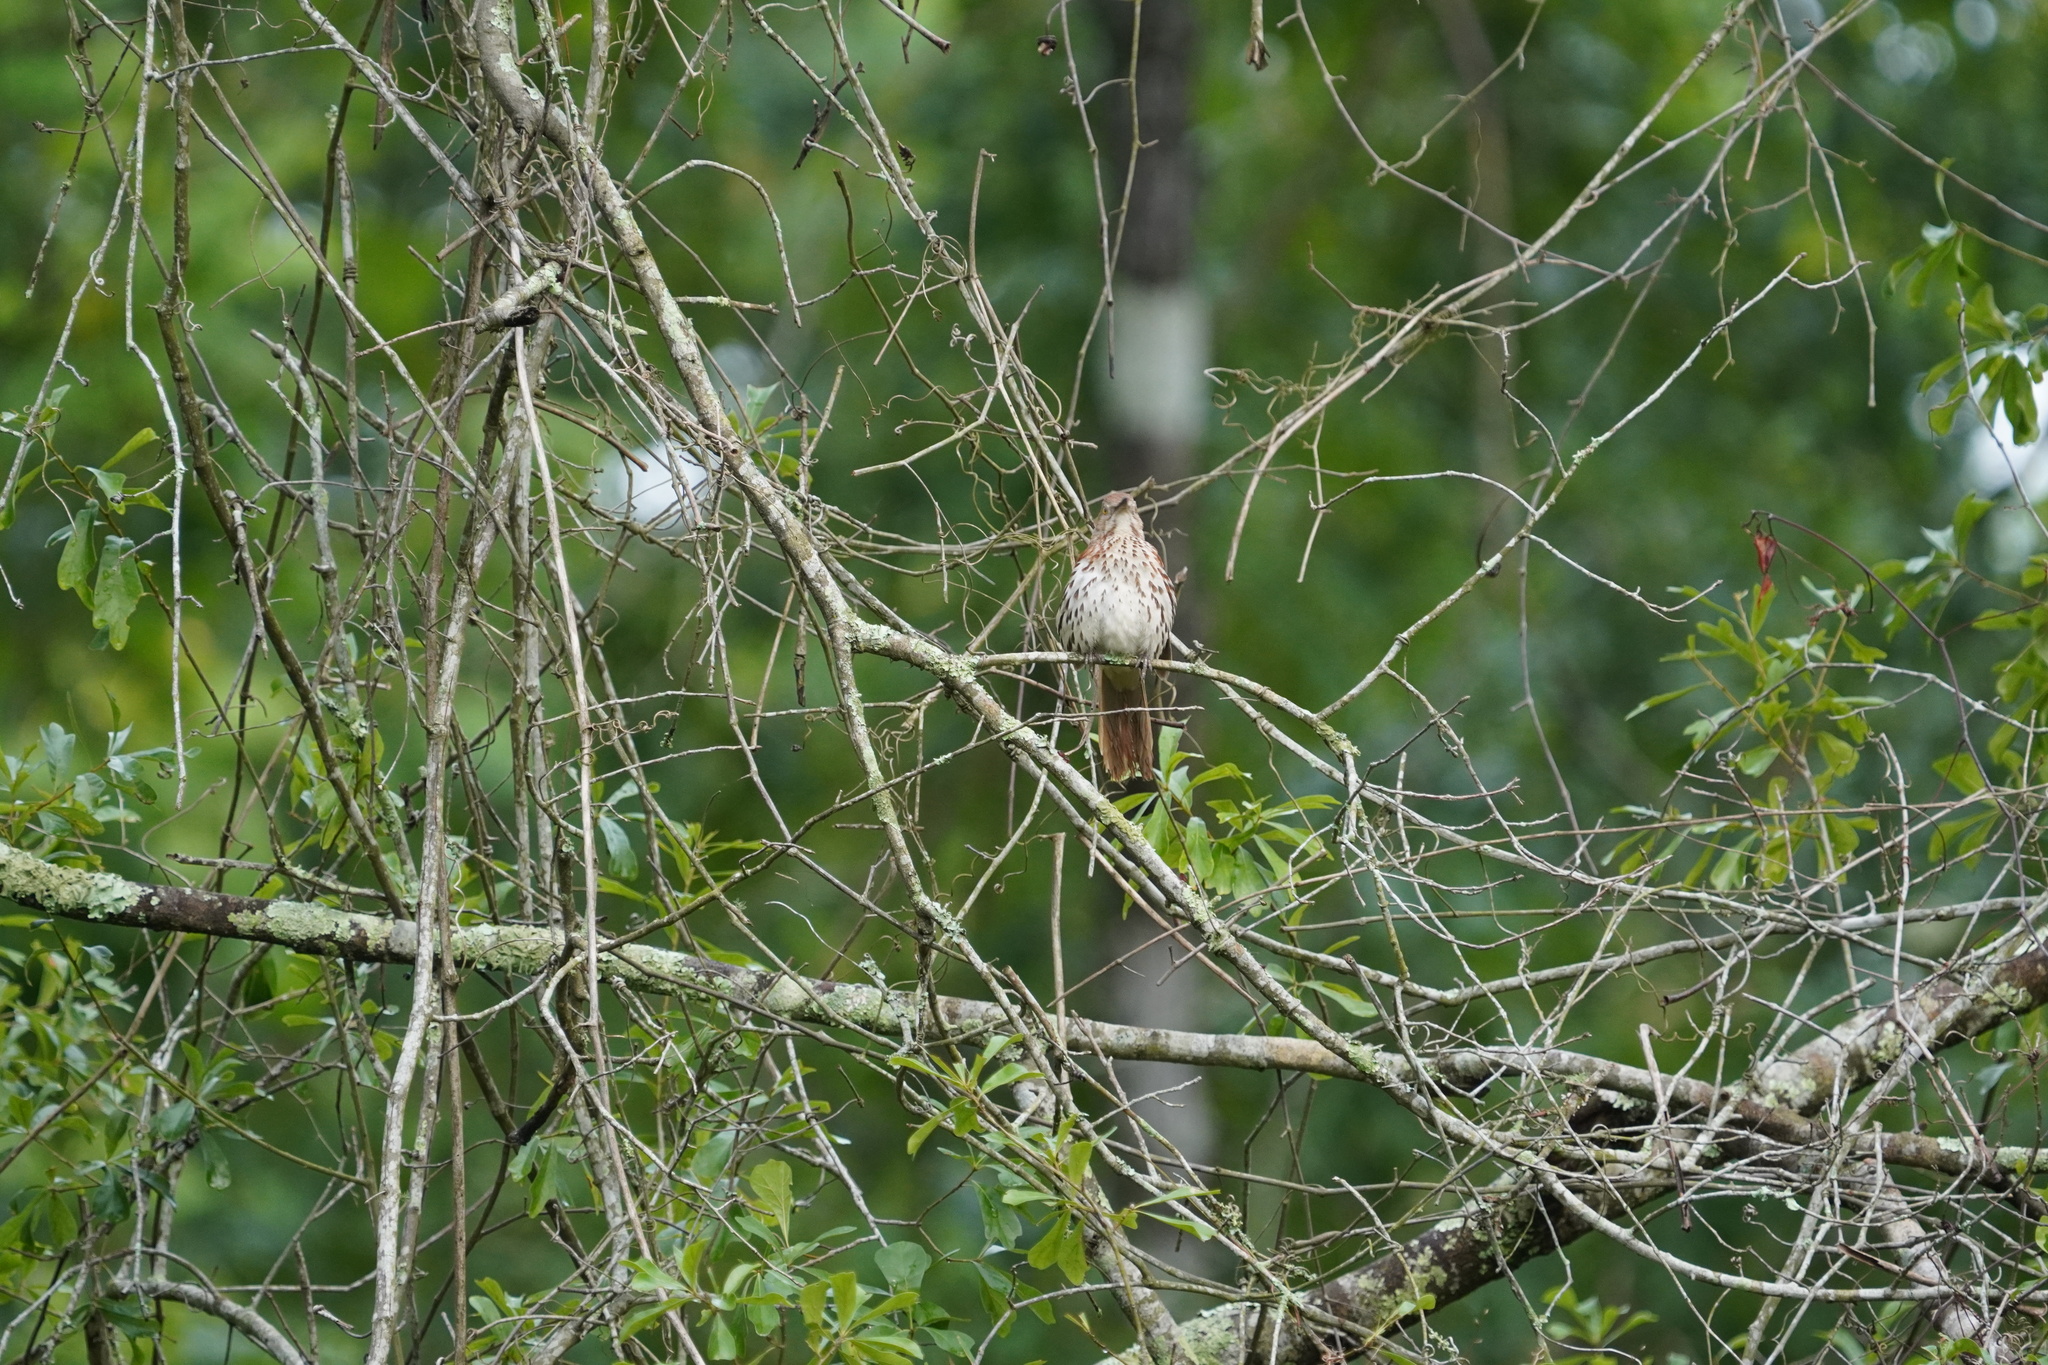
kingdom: Animalia
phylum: Chordata
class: Aves
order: Passeriformes
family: Mimidae
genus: Toxostoma
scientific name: Toxostoma rufum
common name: Brown thrasher
